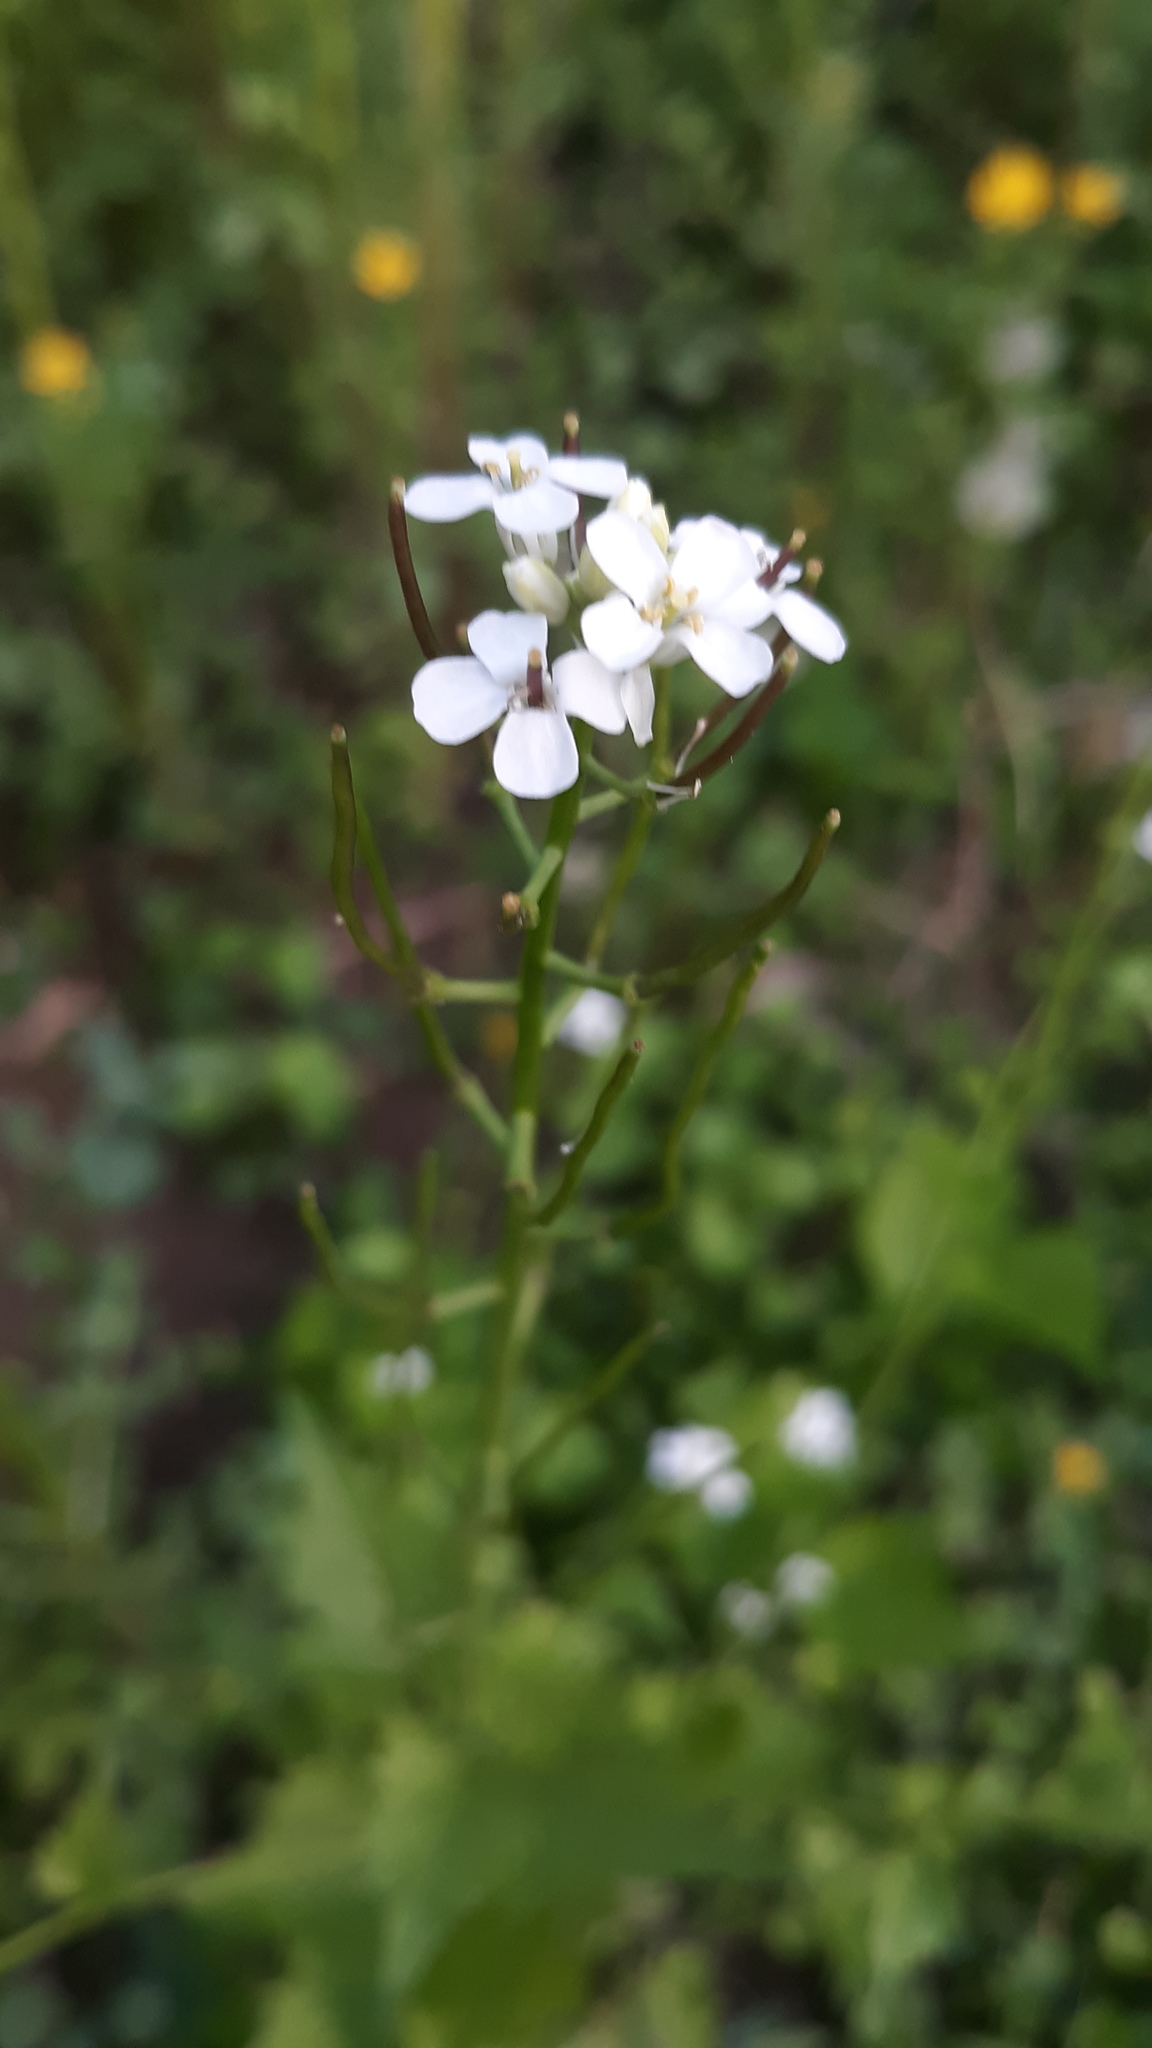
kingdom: Plantae
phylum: Tracheophyta
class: Magnoliopsida
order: Brassicales
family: Brassicaceae
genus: Alliaria
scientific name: Alliaria petiolata
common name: Garlic mustard
